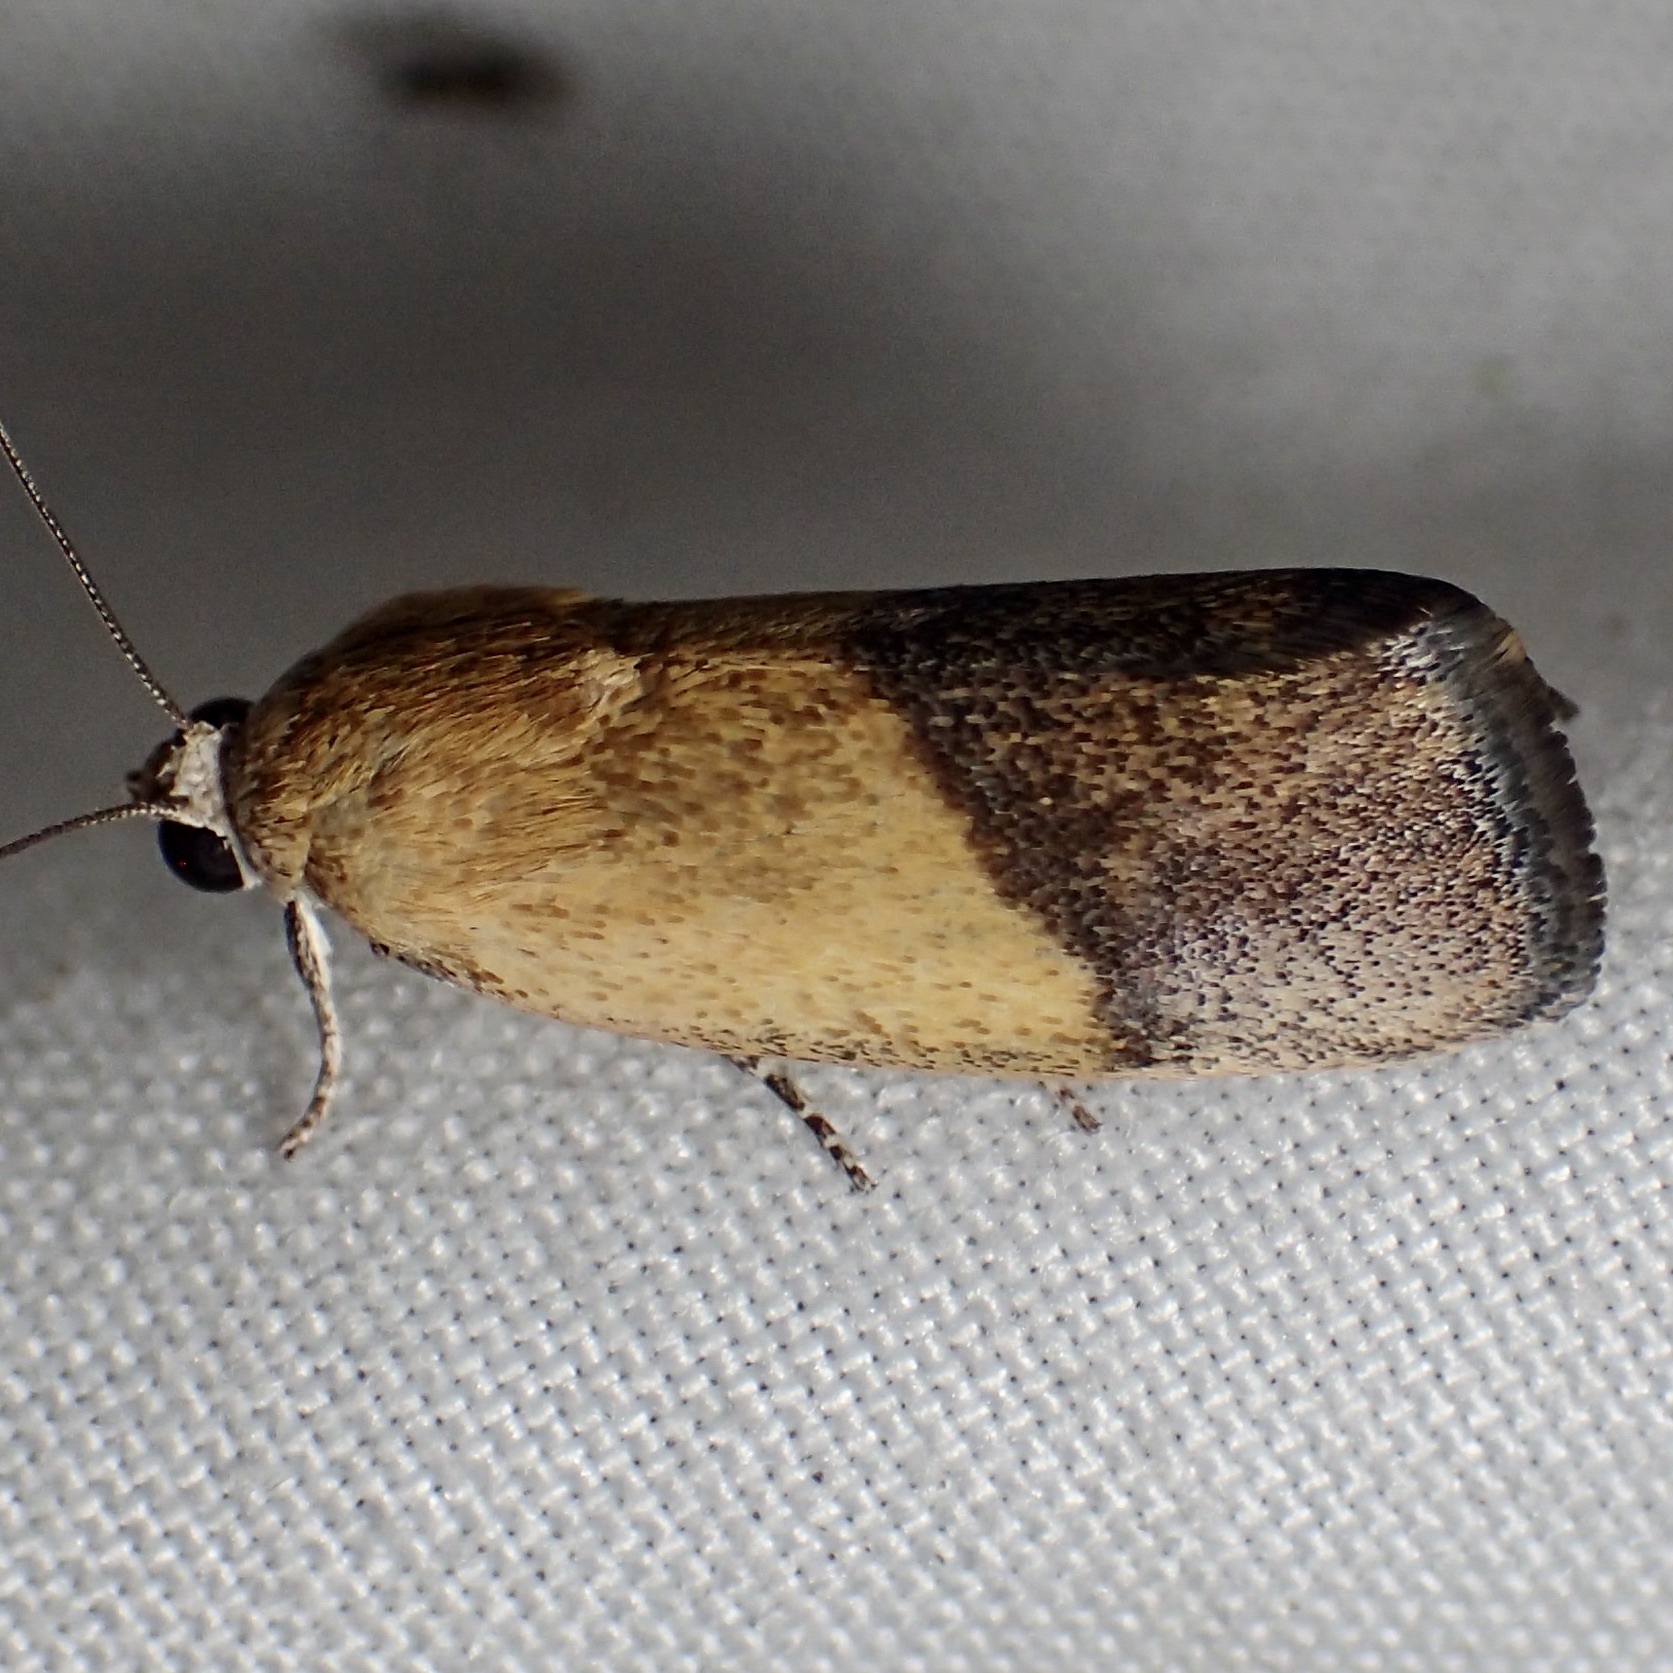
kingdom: Animalia
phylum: Arthropoda
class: Insecta
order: Lepidoptera
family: Noctuidae
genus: Acontia
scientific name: Acontia bicolorata
